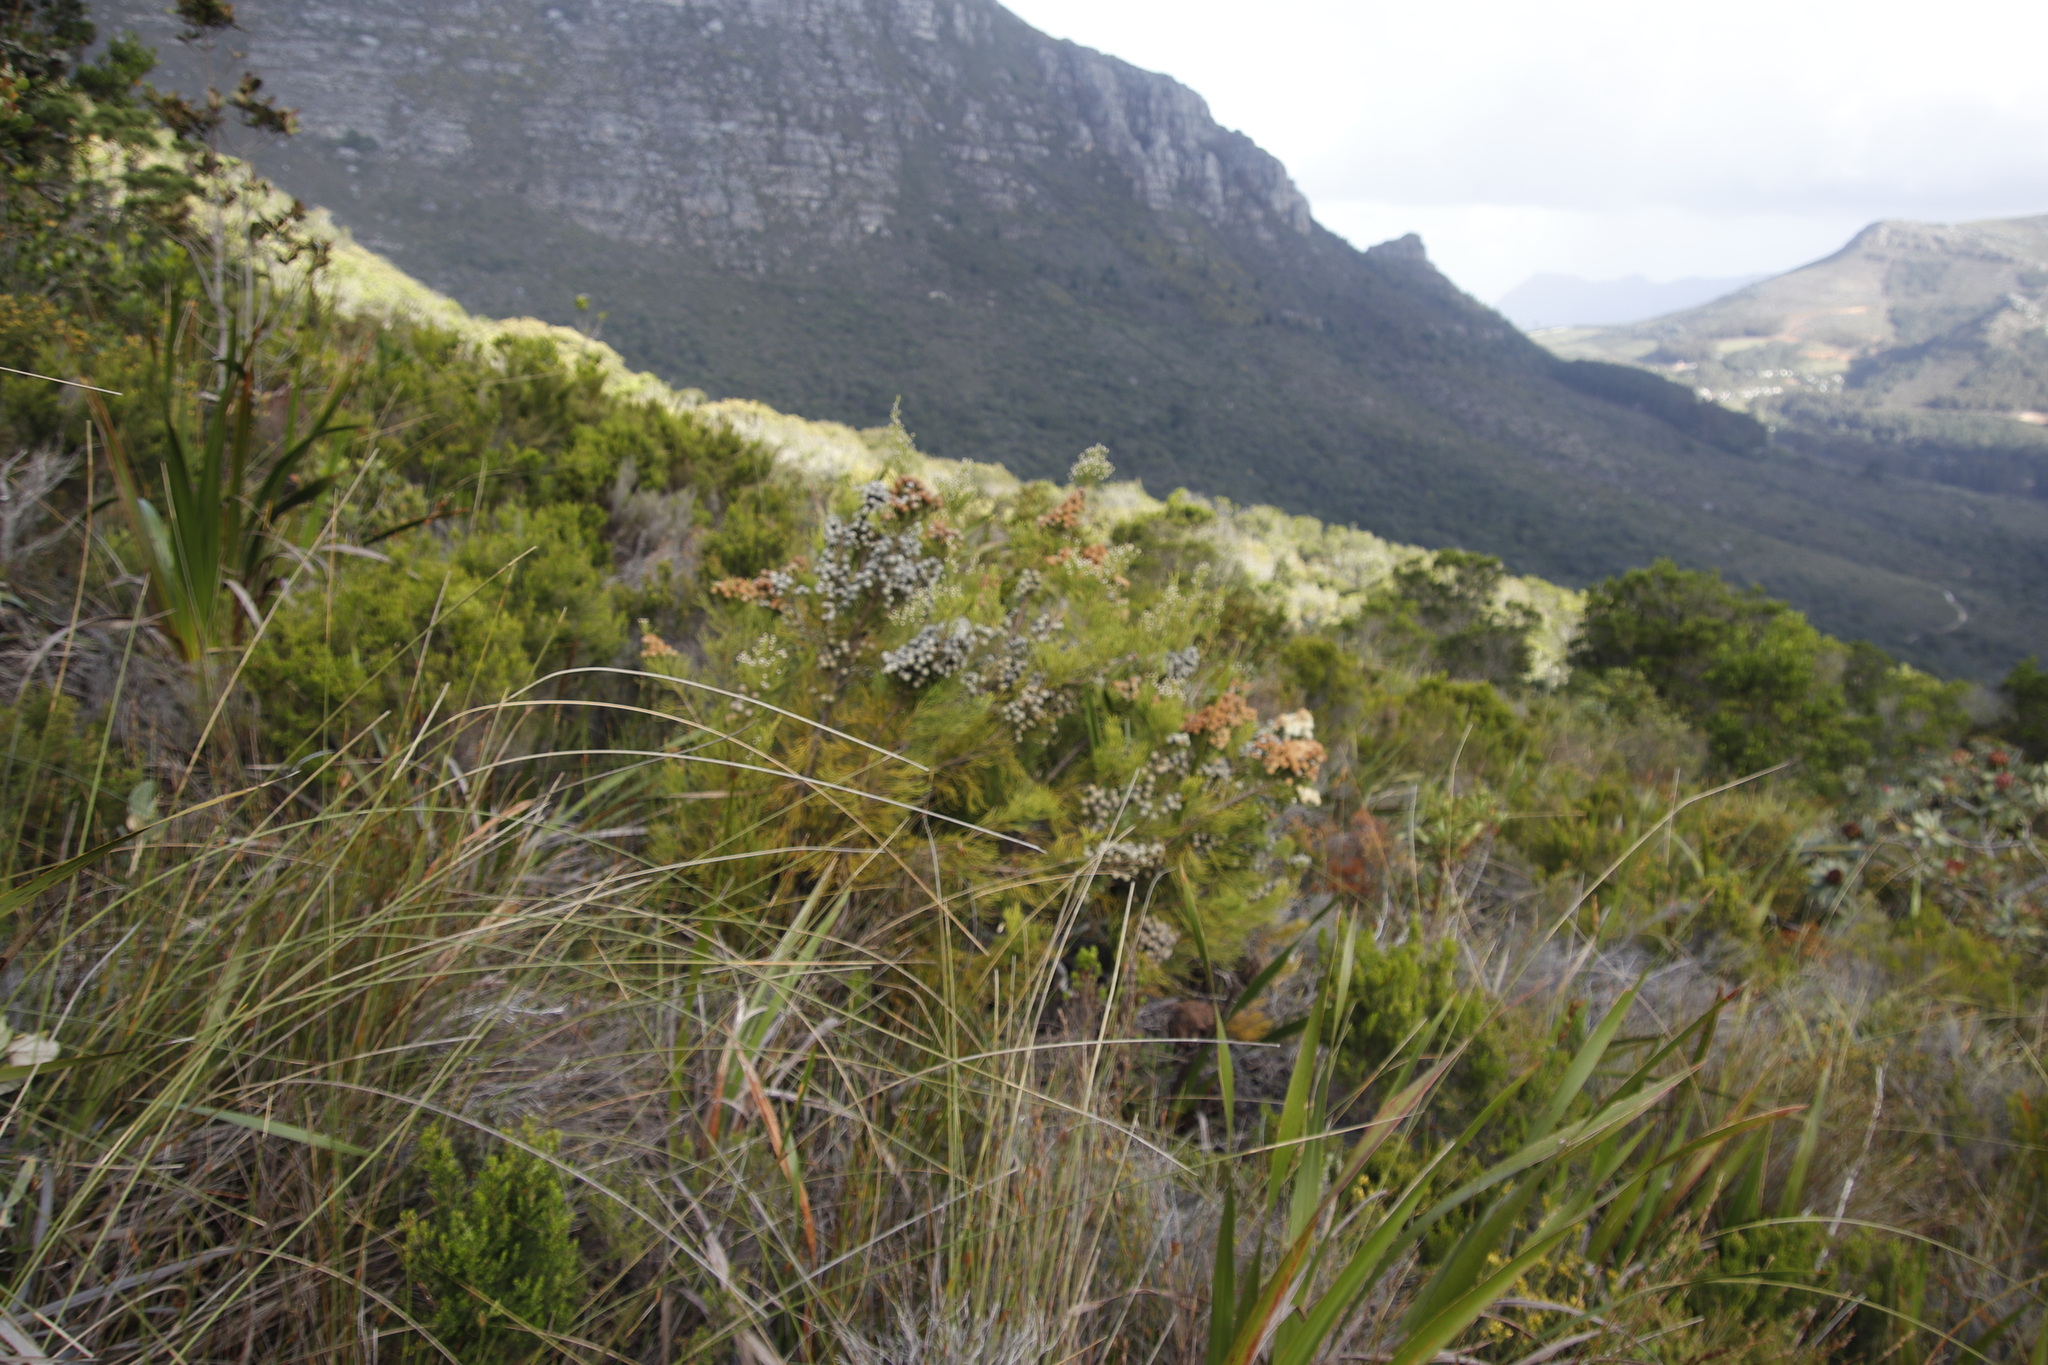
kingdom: Plantae
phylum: Tracheophyta
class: Magnoliopsida
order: Bruniales
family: Bruniaceae
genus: Brunia
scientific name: Brunia noduliflora
